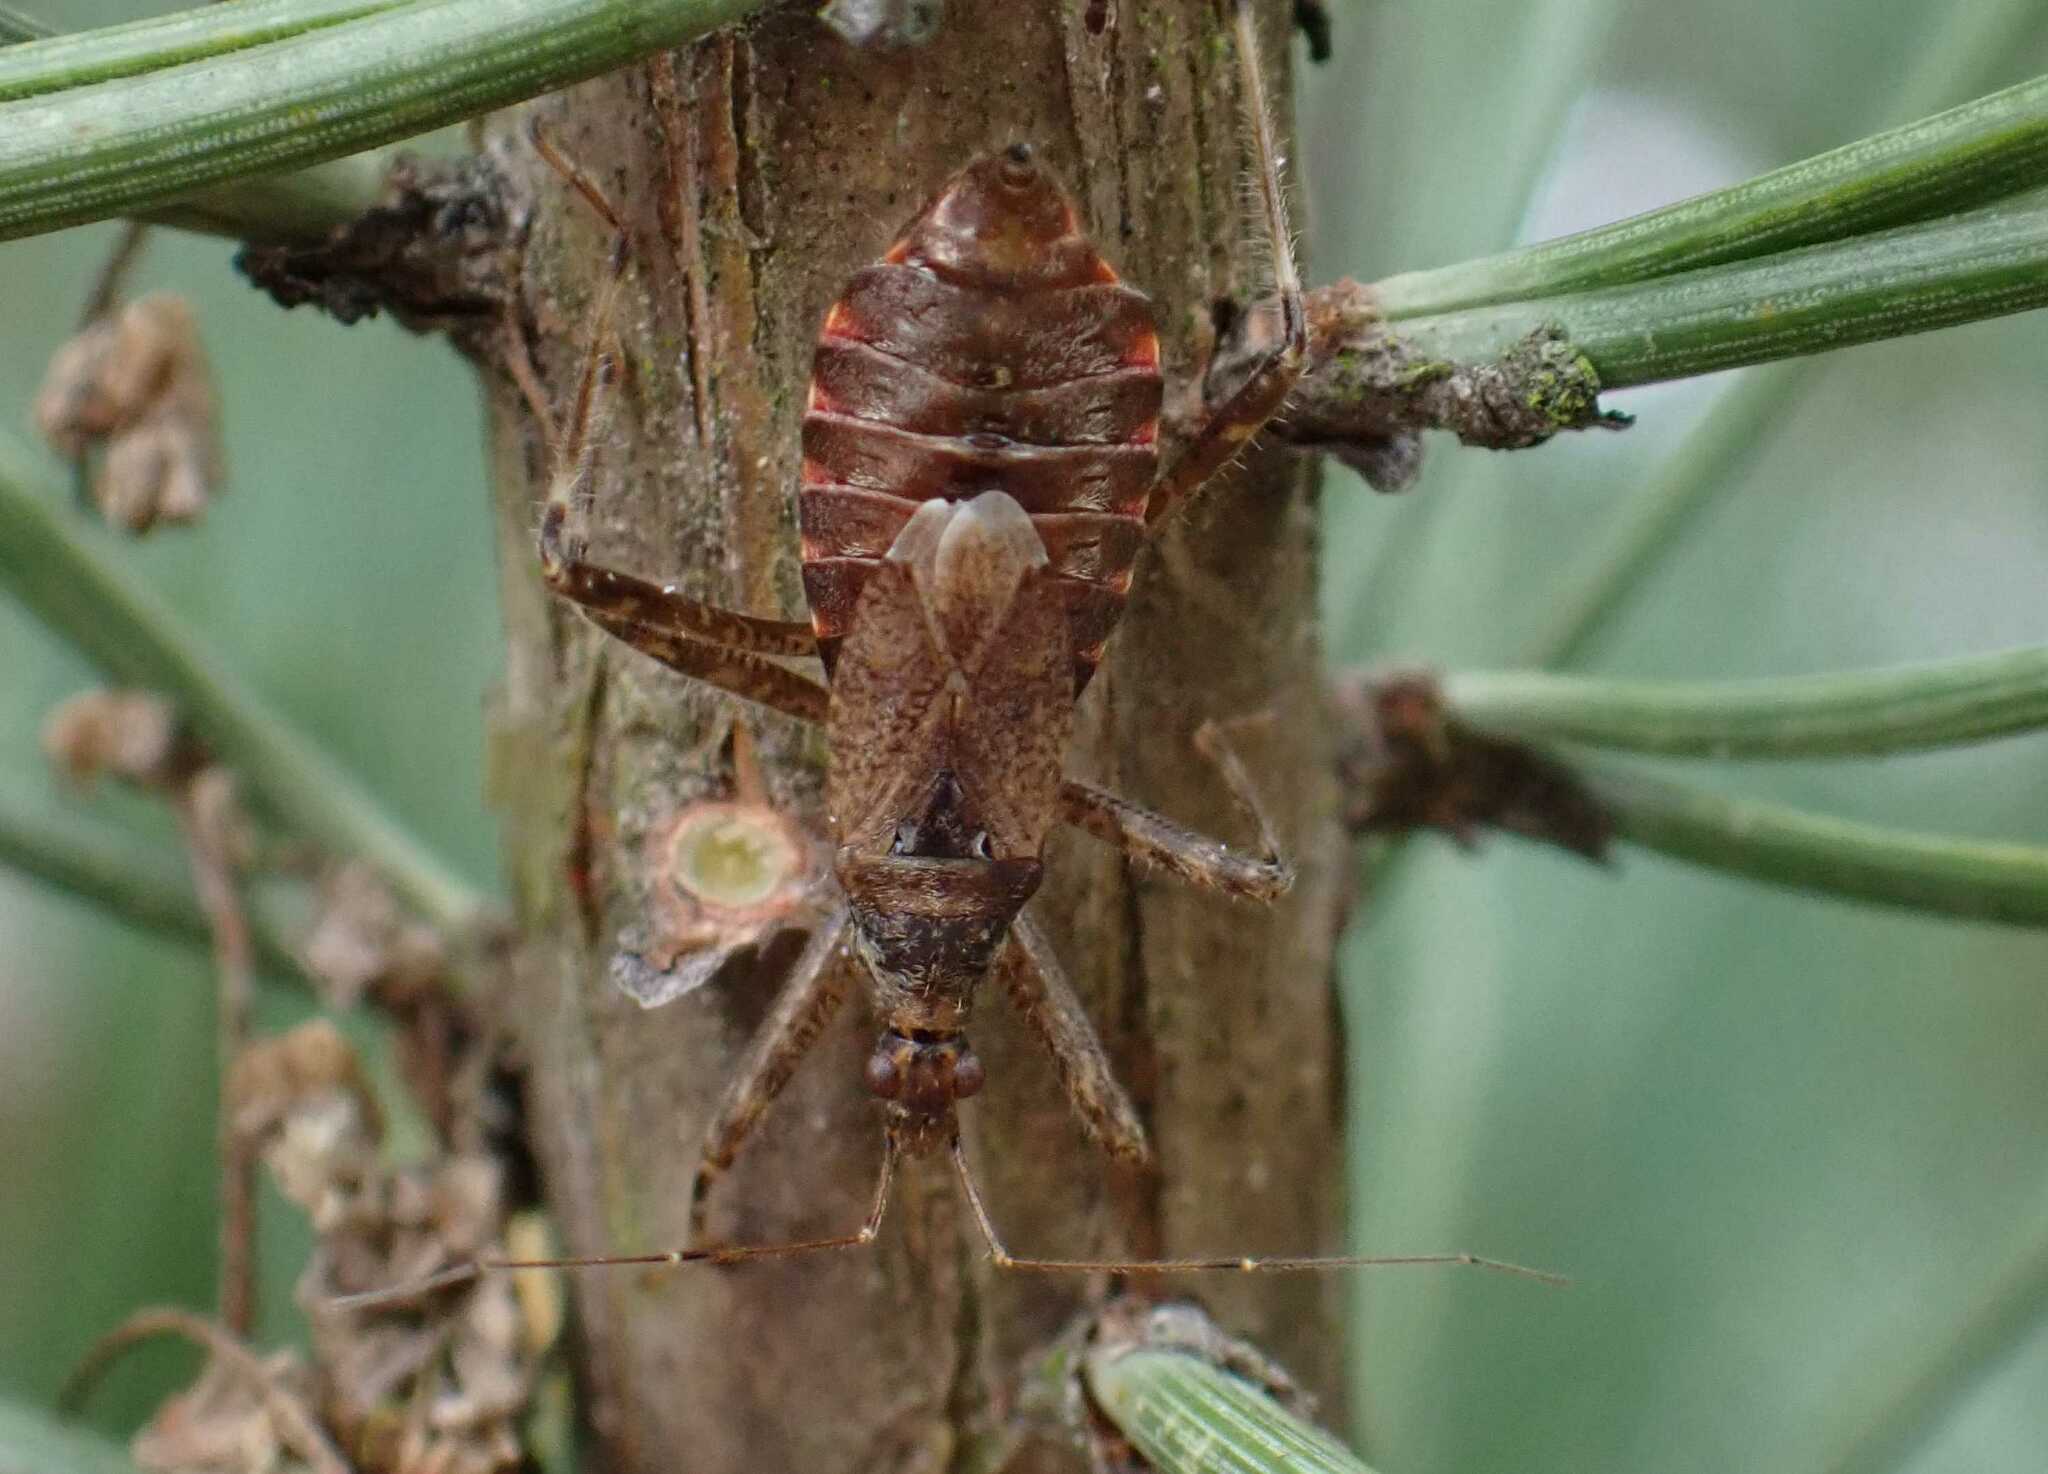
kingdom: Animalia
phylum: Arthropoda
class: Insecta
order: Hemiptera
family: Nabidae
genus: Himacerus
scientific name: Himacerus apterus
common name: Tree damsel bug
